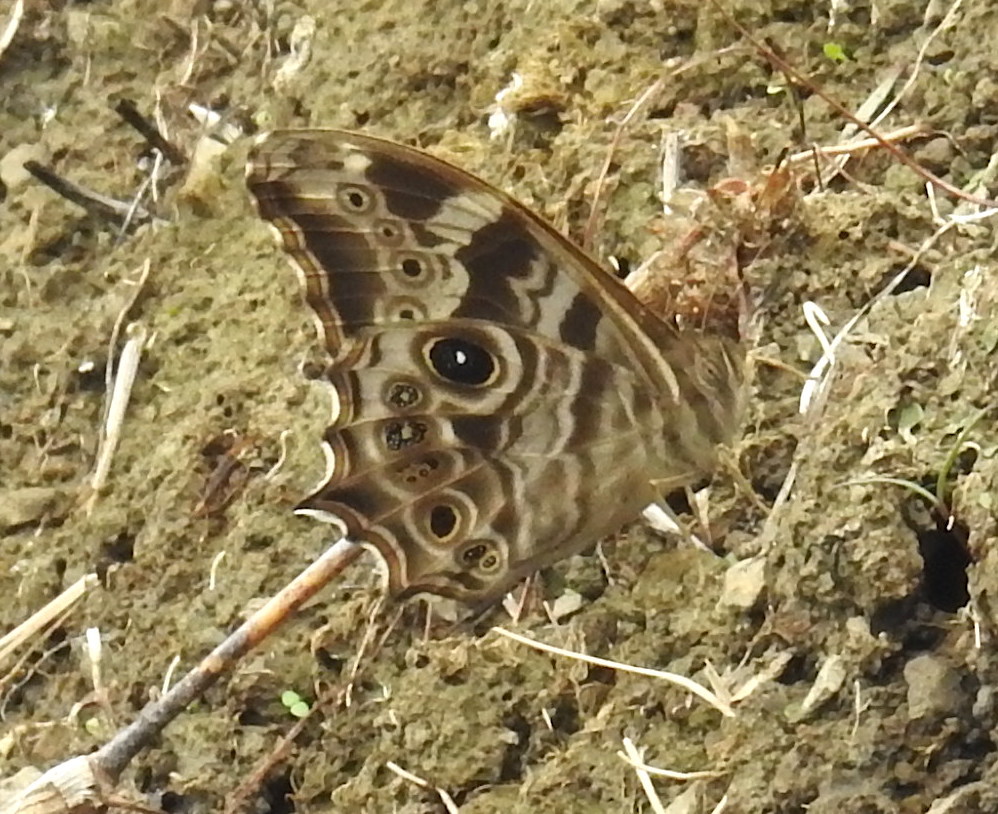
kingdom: Animalia
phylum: Arthropoda
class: Insecta
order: Lepidoptera
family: Nymphalidae
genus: Lethe
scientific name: Lethe rohria
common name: Common treebrown
